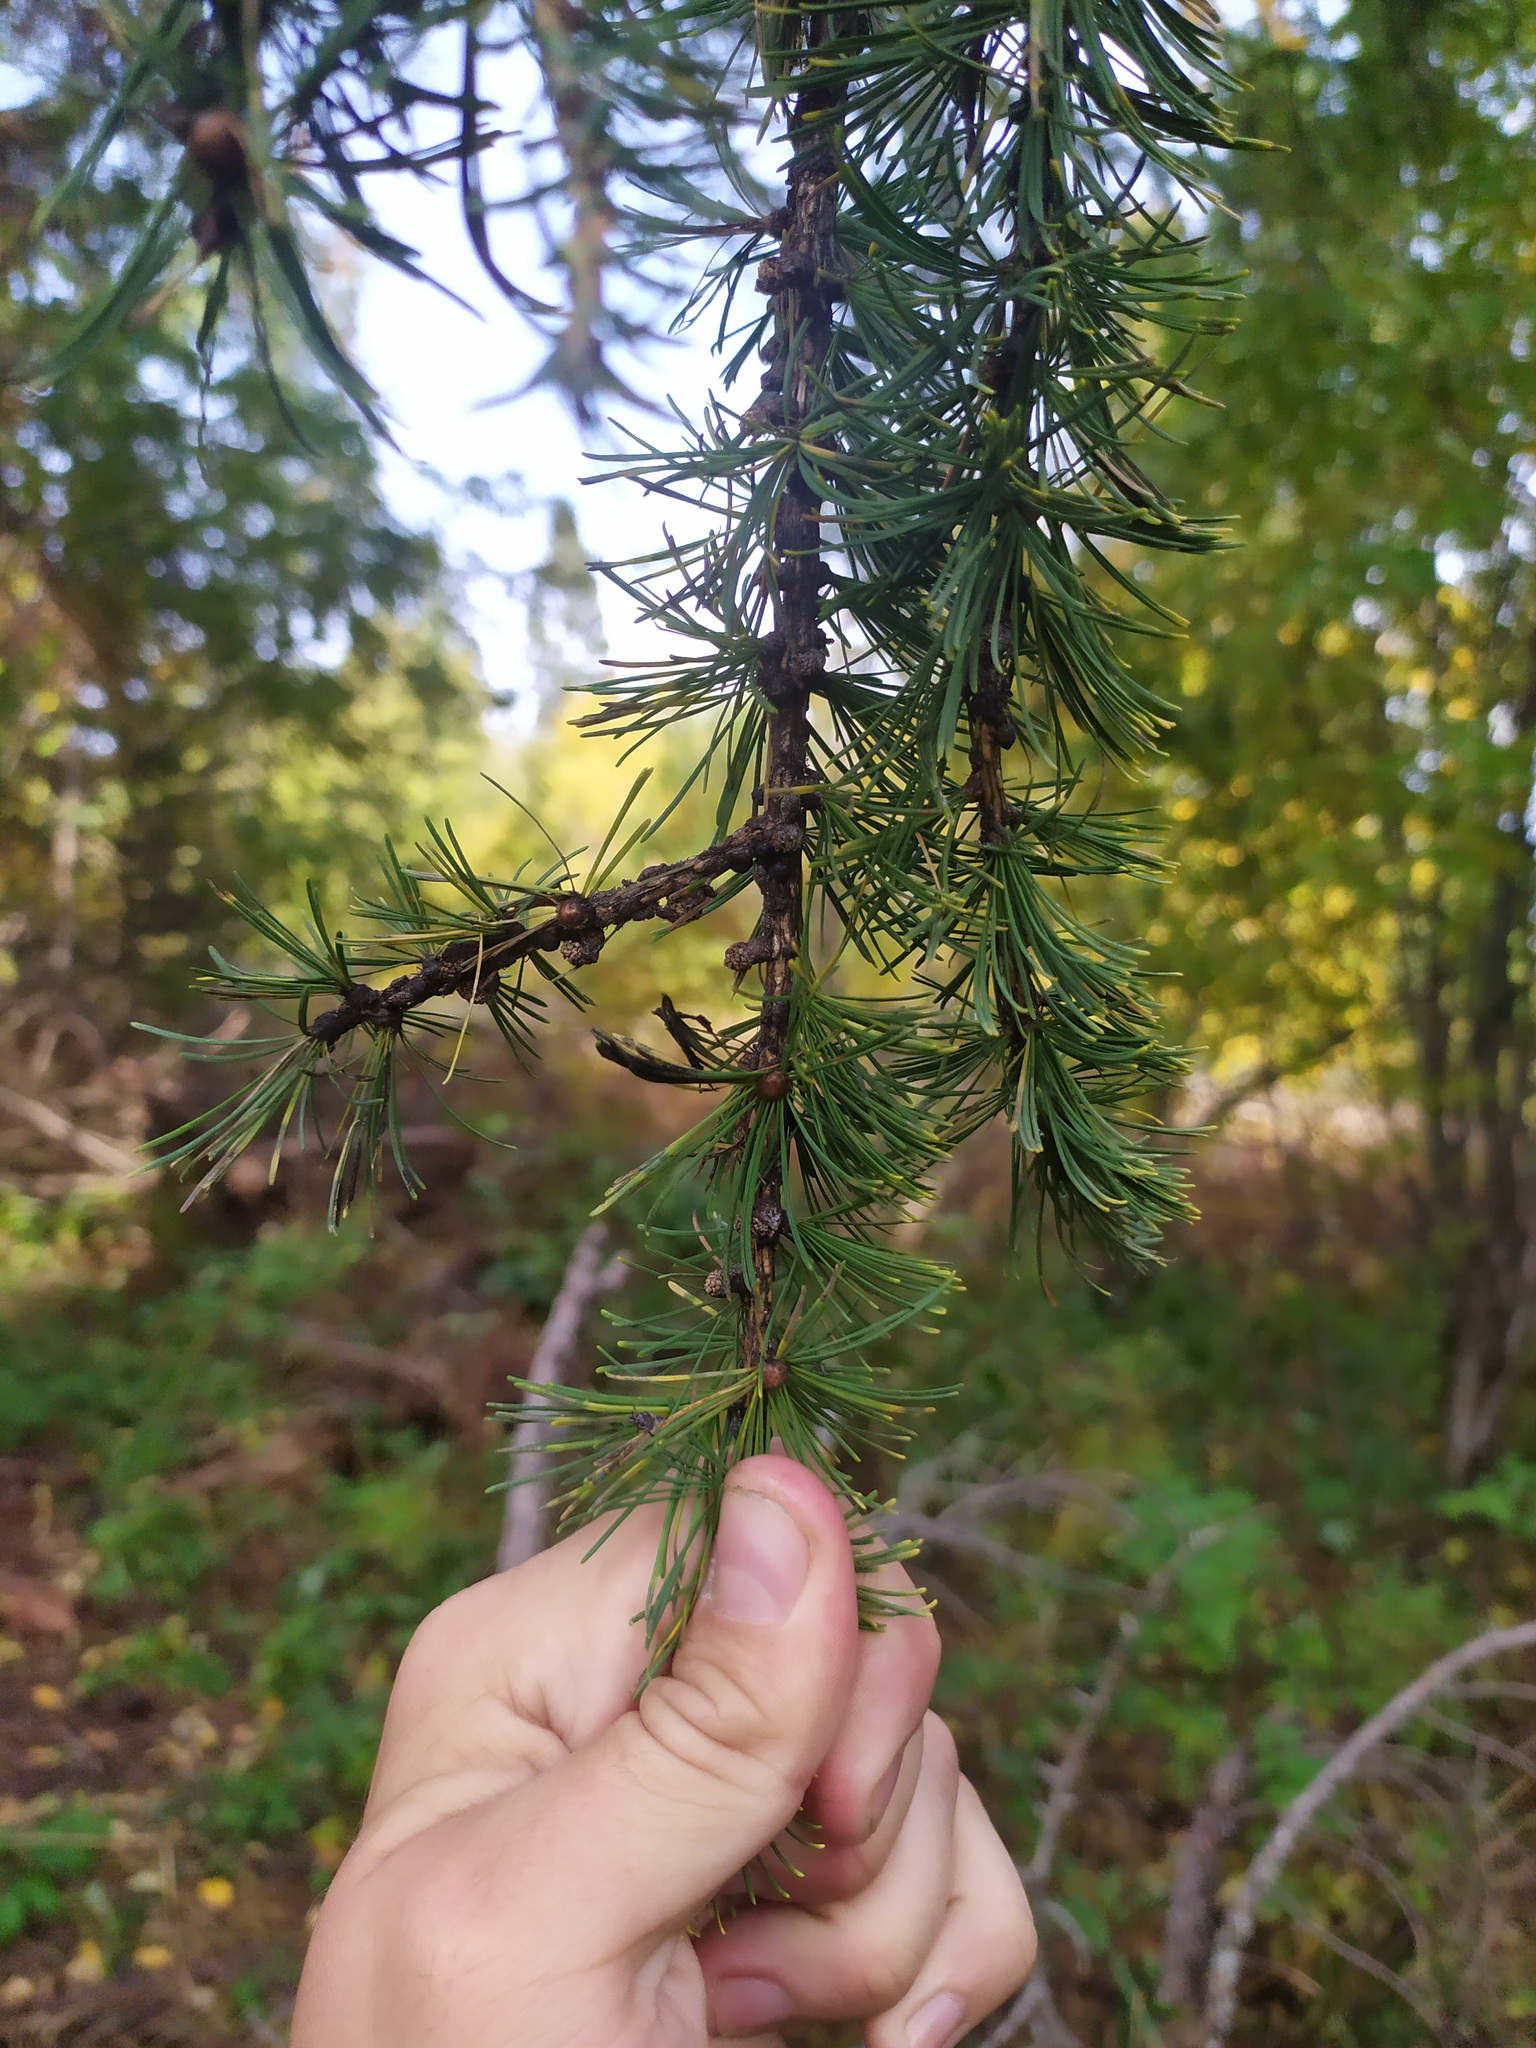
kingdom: Plantae
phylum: Tracheophyta
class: Pinopsida
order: Pinales
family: Pinaceae
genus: Larix
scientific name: Larix
